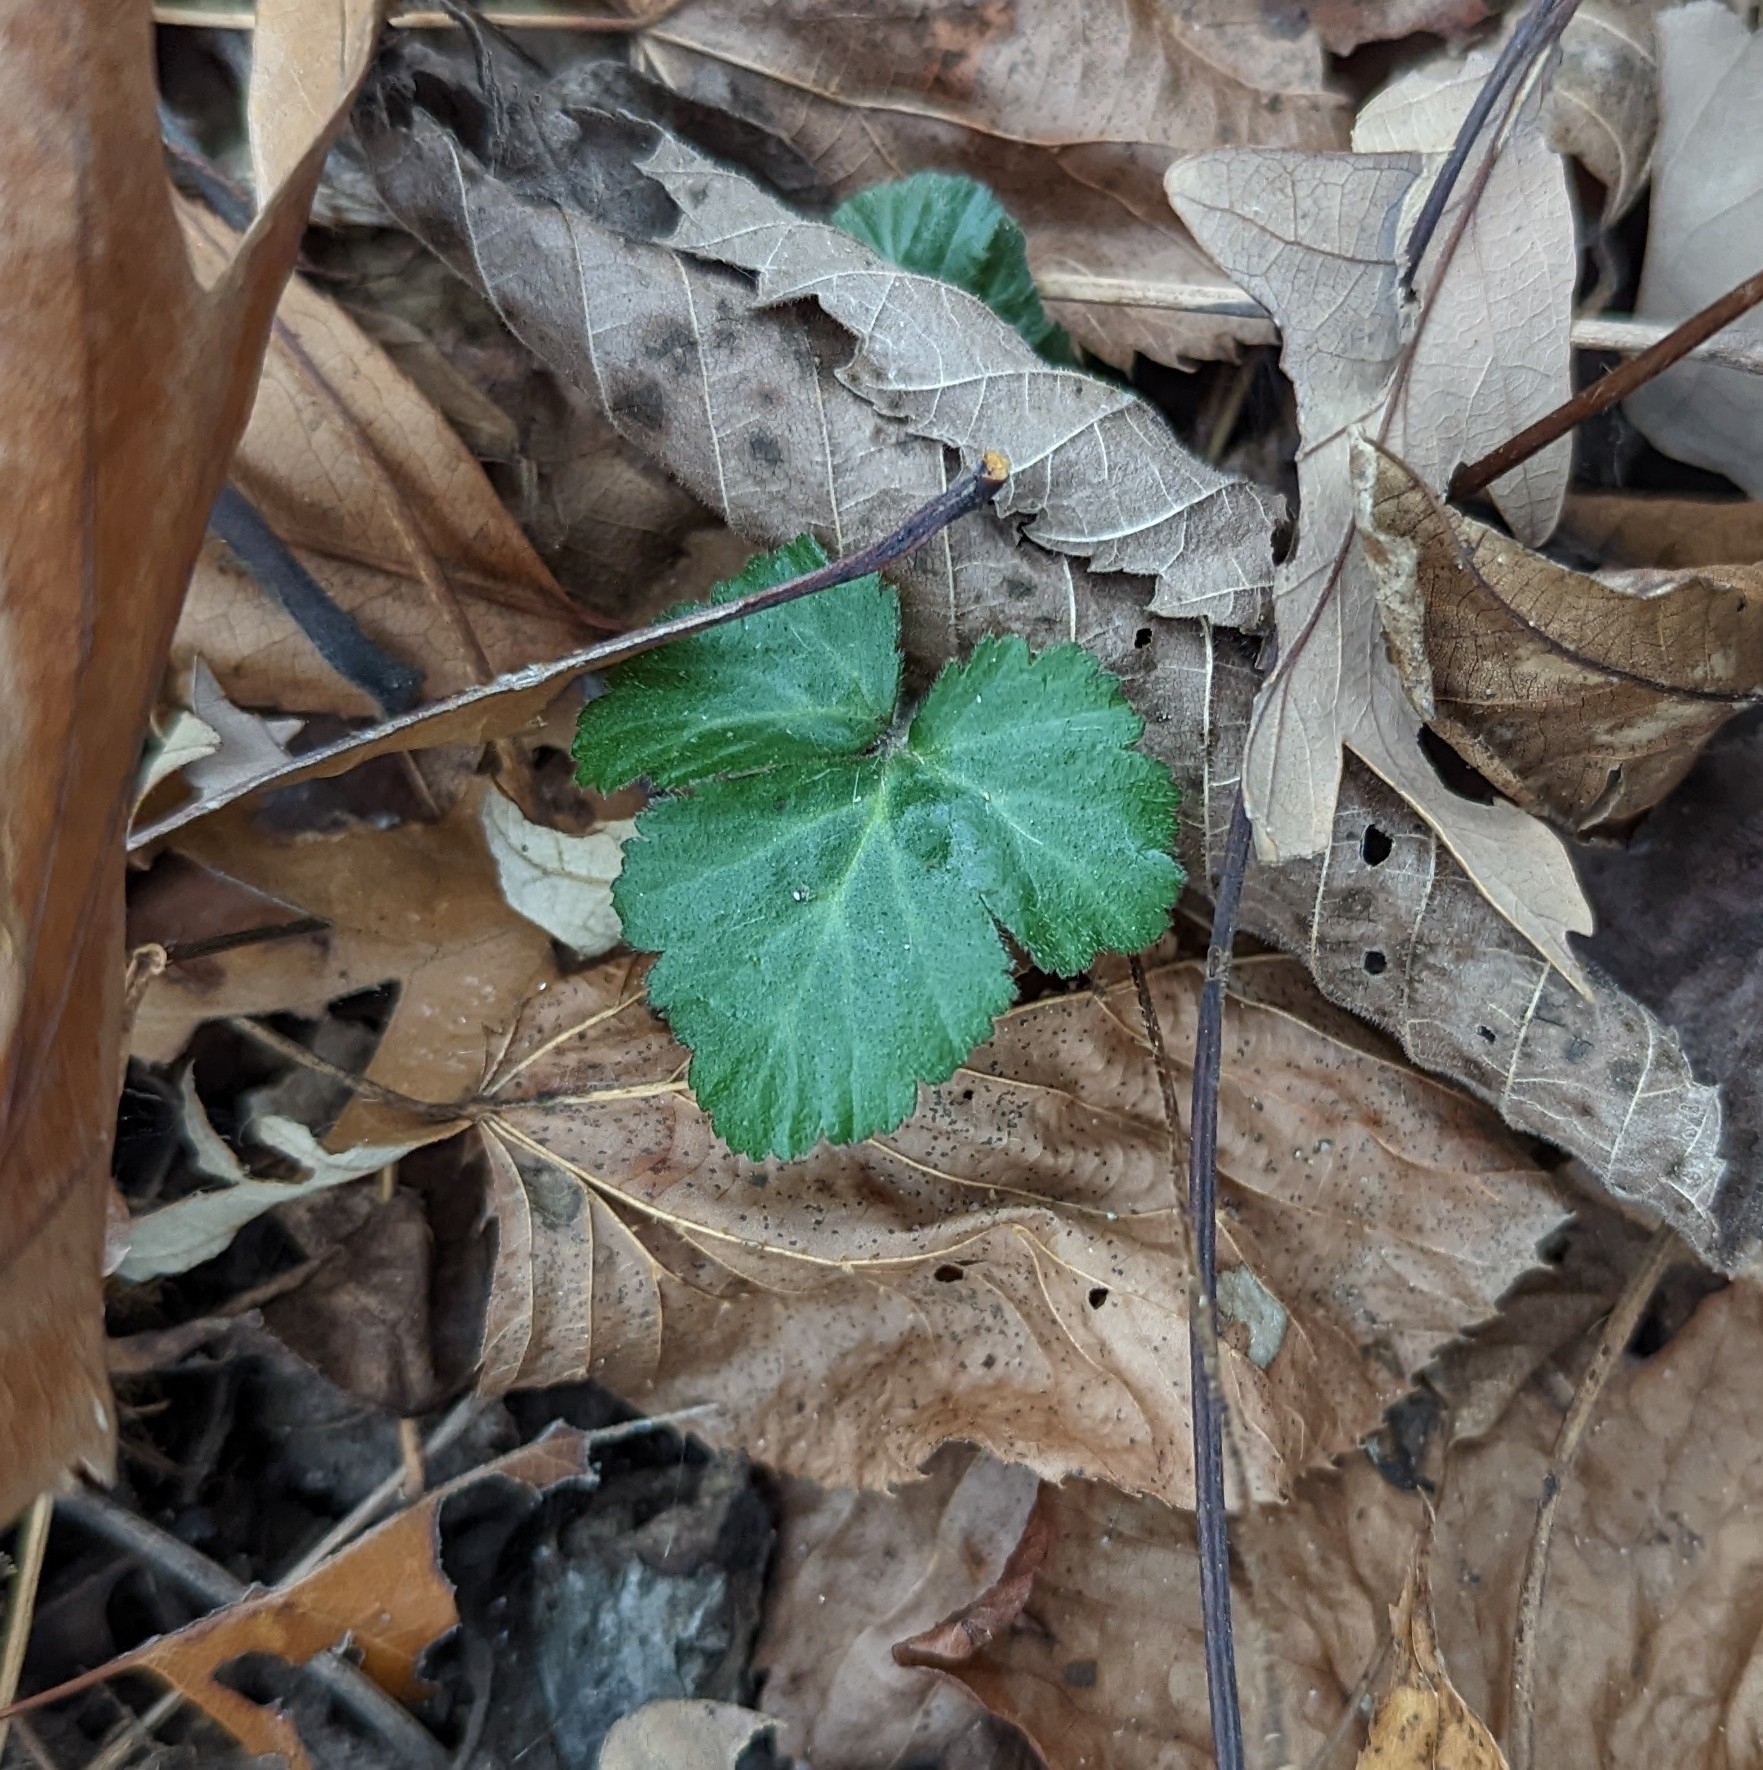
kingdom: Plantae
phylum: Tracheophyta
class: Magnoliopsida
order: Rosales
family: Rosaceae
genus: Geum
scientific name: Geum canadense
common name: White avens
